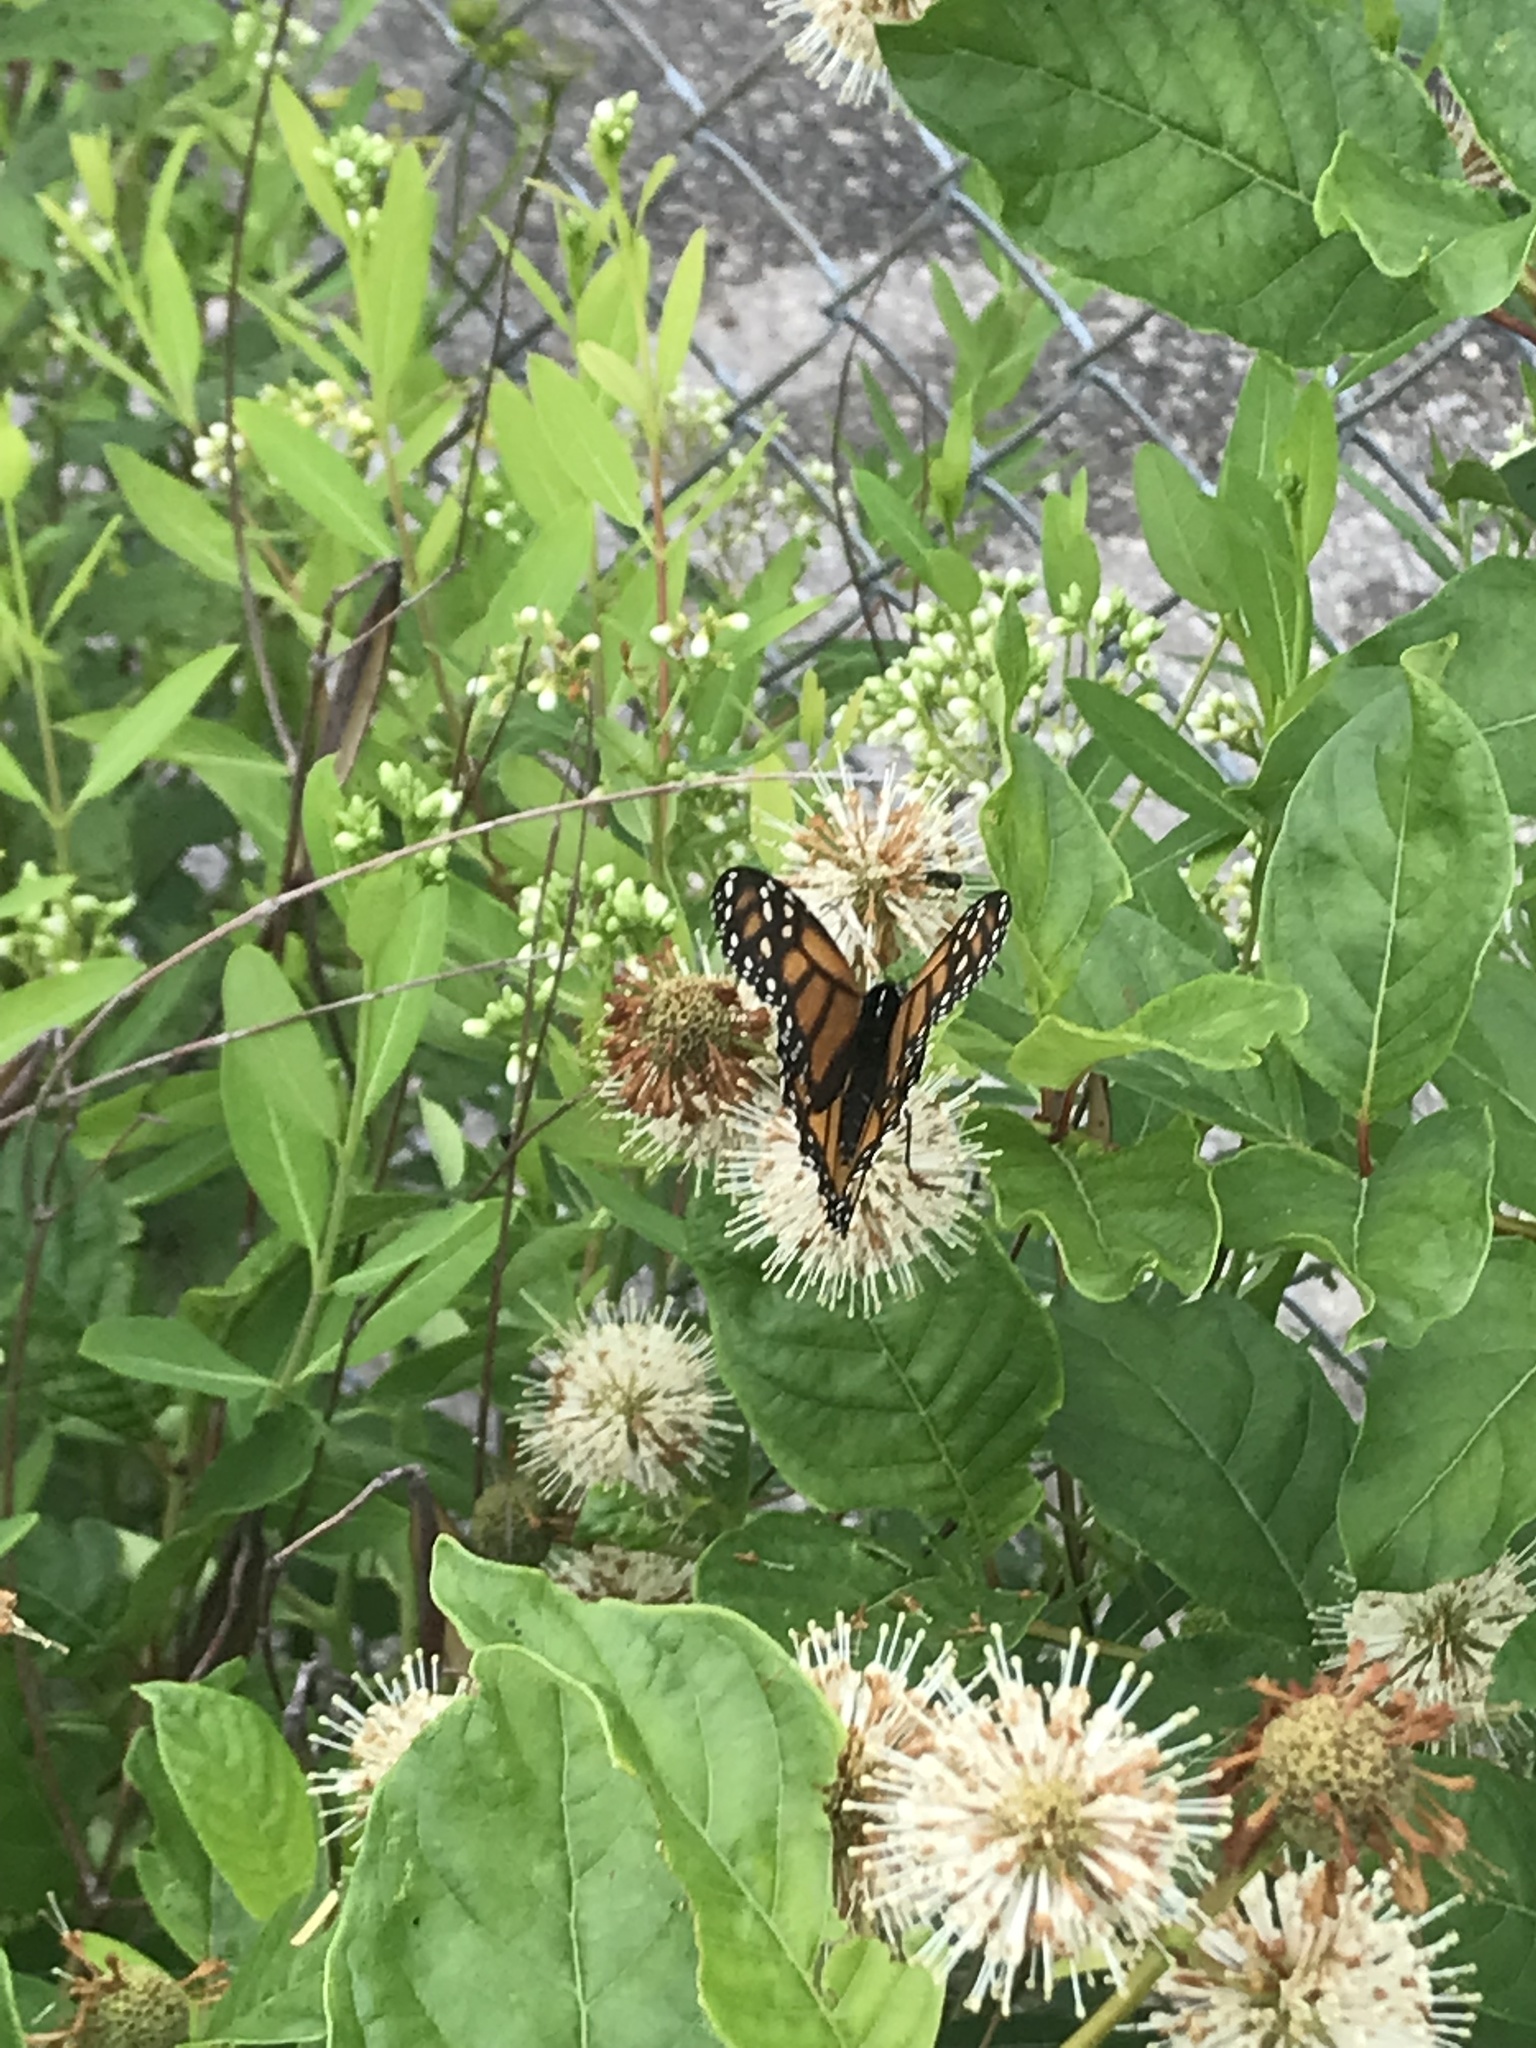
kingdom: Animalia
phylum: Arthropoda
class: Insecta
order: Lepidoptera
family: Nymphalidae
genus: Danaus
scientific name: Danaus plexippus
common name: Monarch
